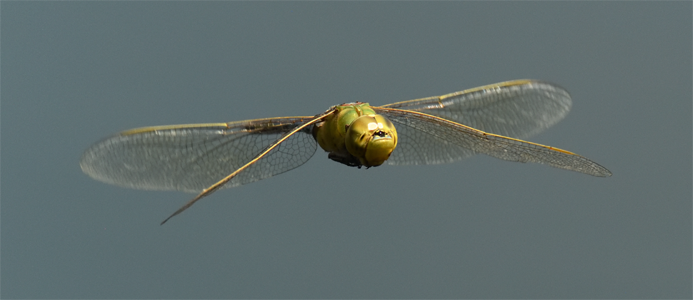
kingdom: Animalia
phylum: Arthropoda
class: Insecta
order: Odonata
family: Aeshnidae
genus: Anax
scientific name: Anax junius
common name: Common green darner
